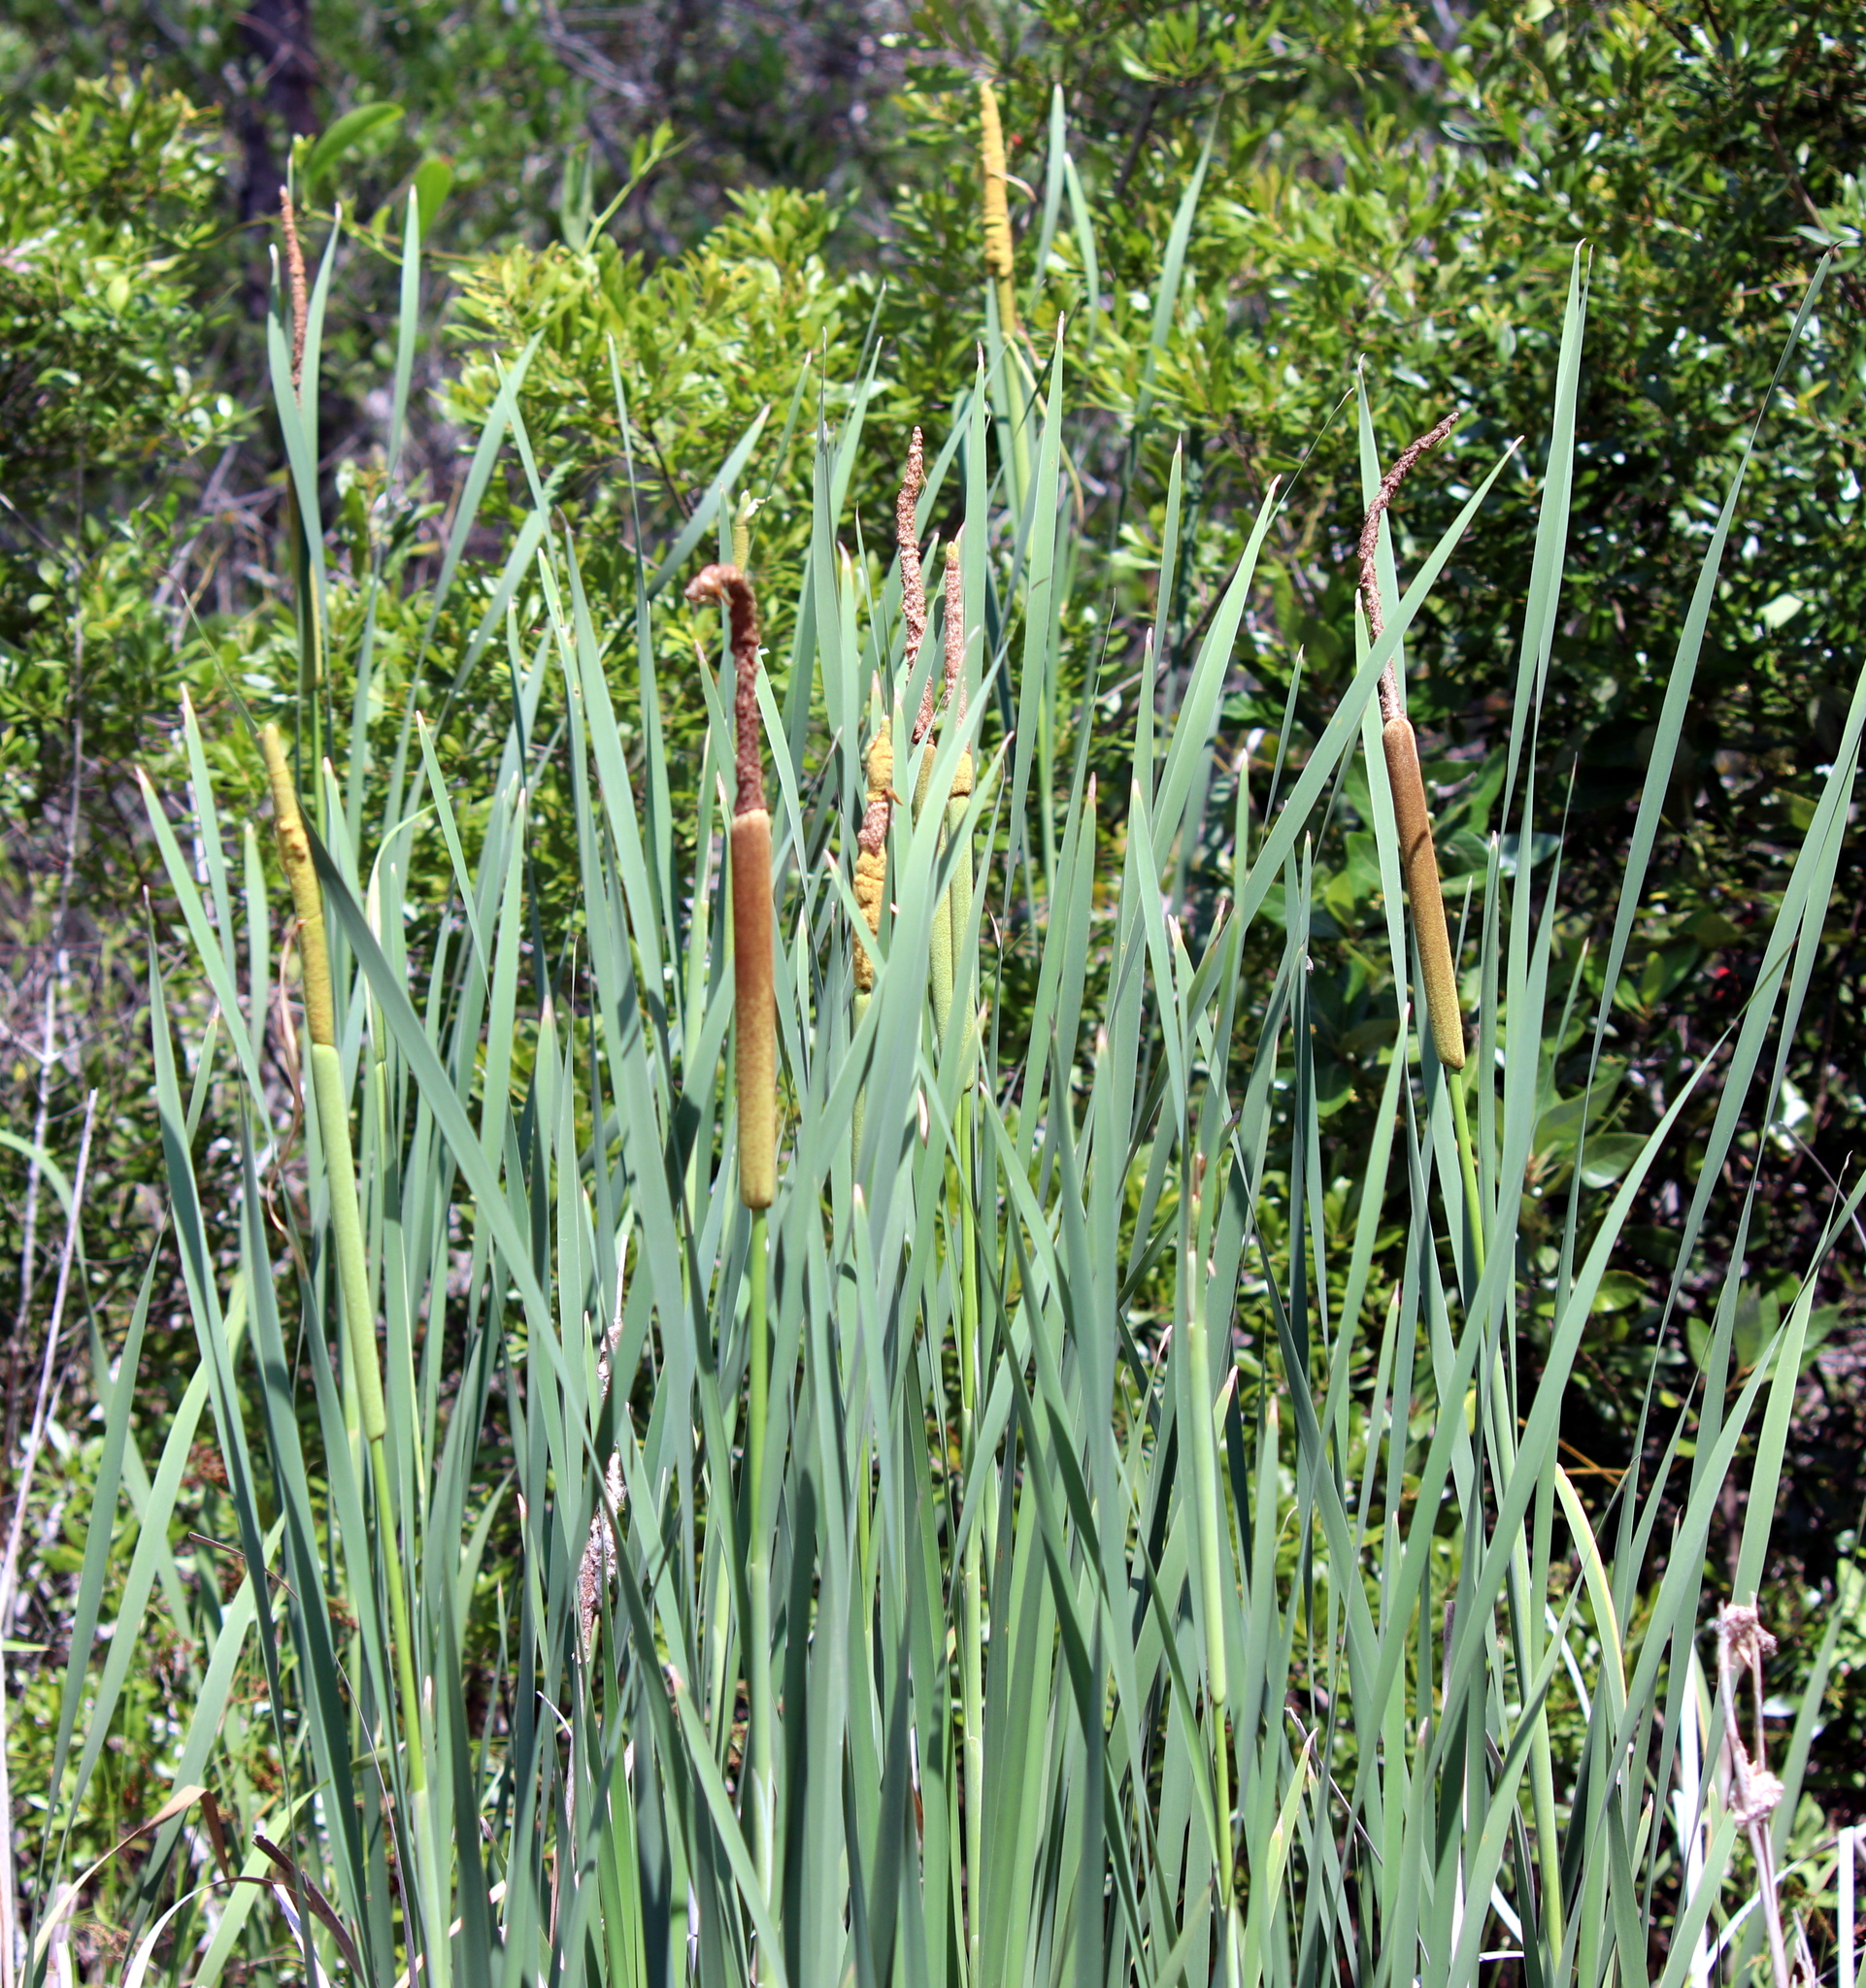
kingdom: Plantae
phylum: Tracheophyta
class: Liliopsida
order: Poales
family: Typhaceae
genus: Typha
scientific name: Typha latifolia
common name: Broadleaf cattail
